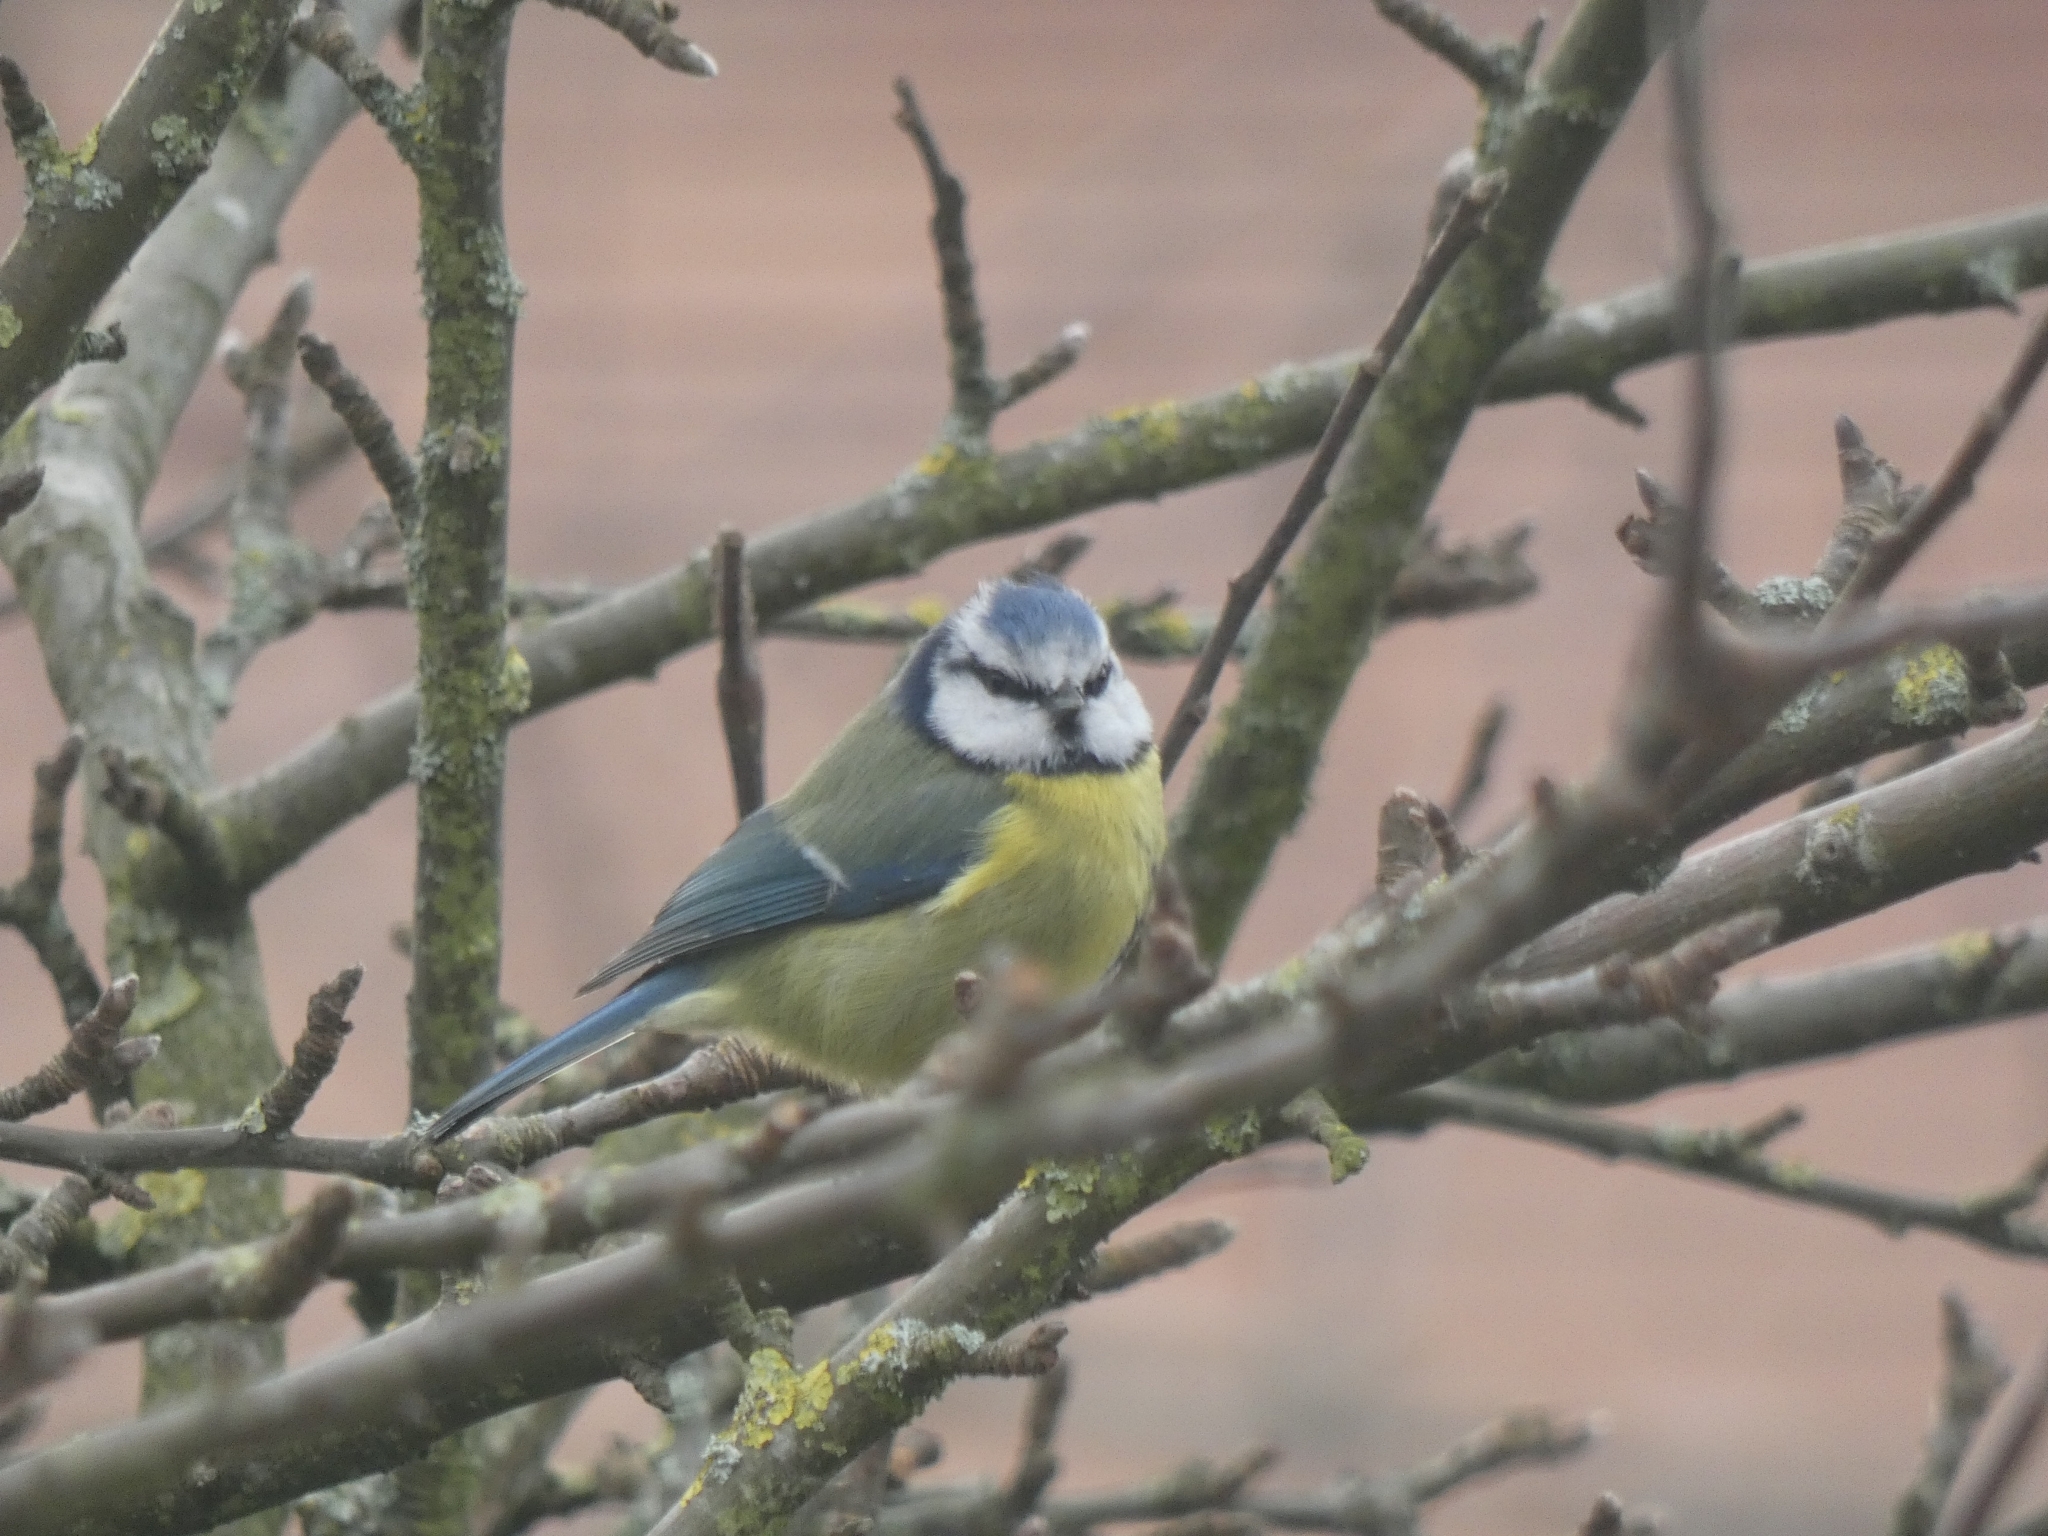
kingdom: Animalia
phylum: Chordata
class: Aves
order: Passeriformes
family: Paridae
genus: Cyanistes
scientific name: Cyanistes caeruleus
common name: Eurasian blue tit
